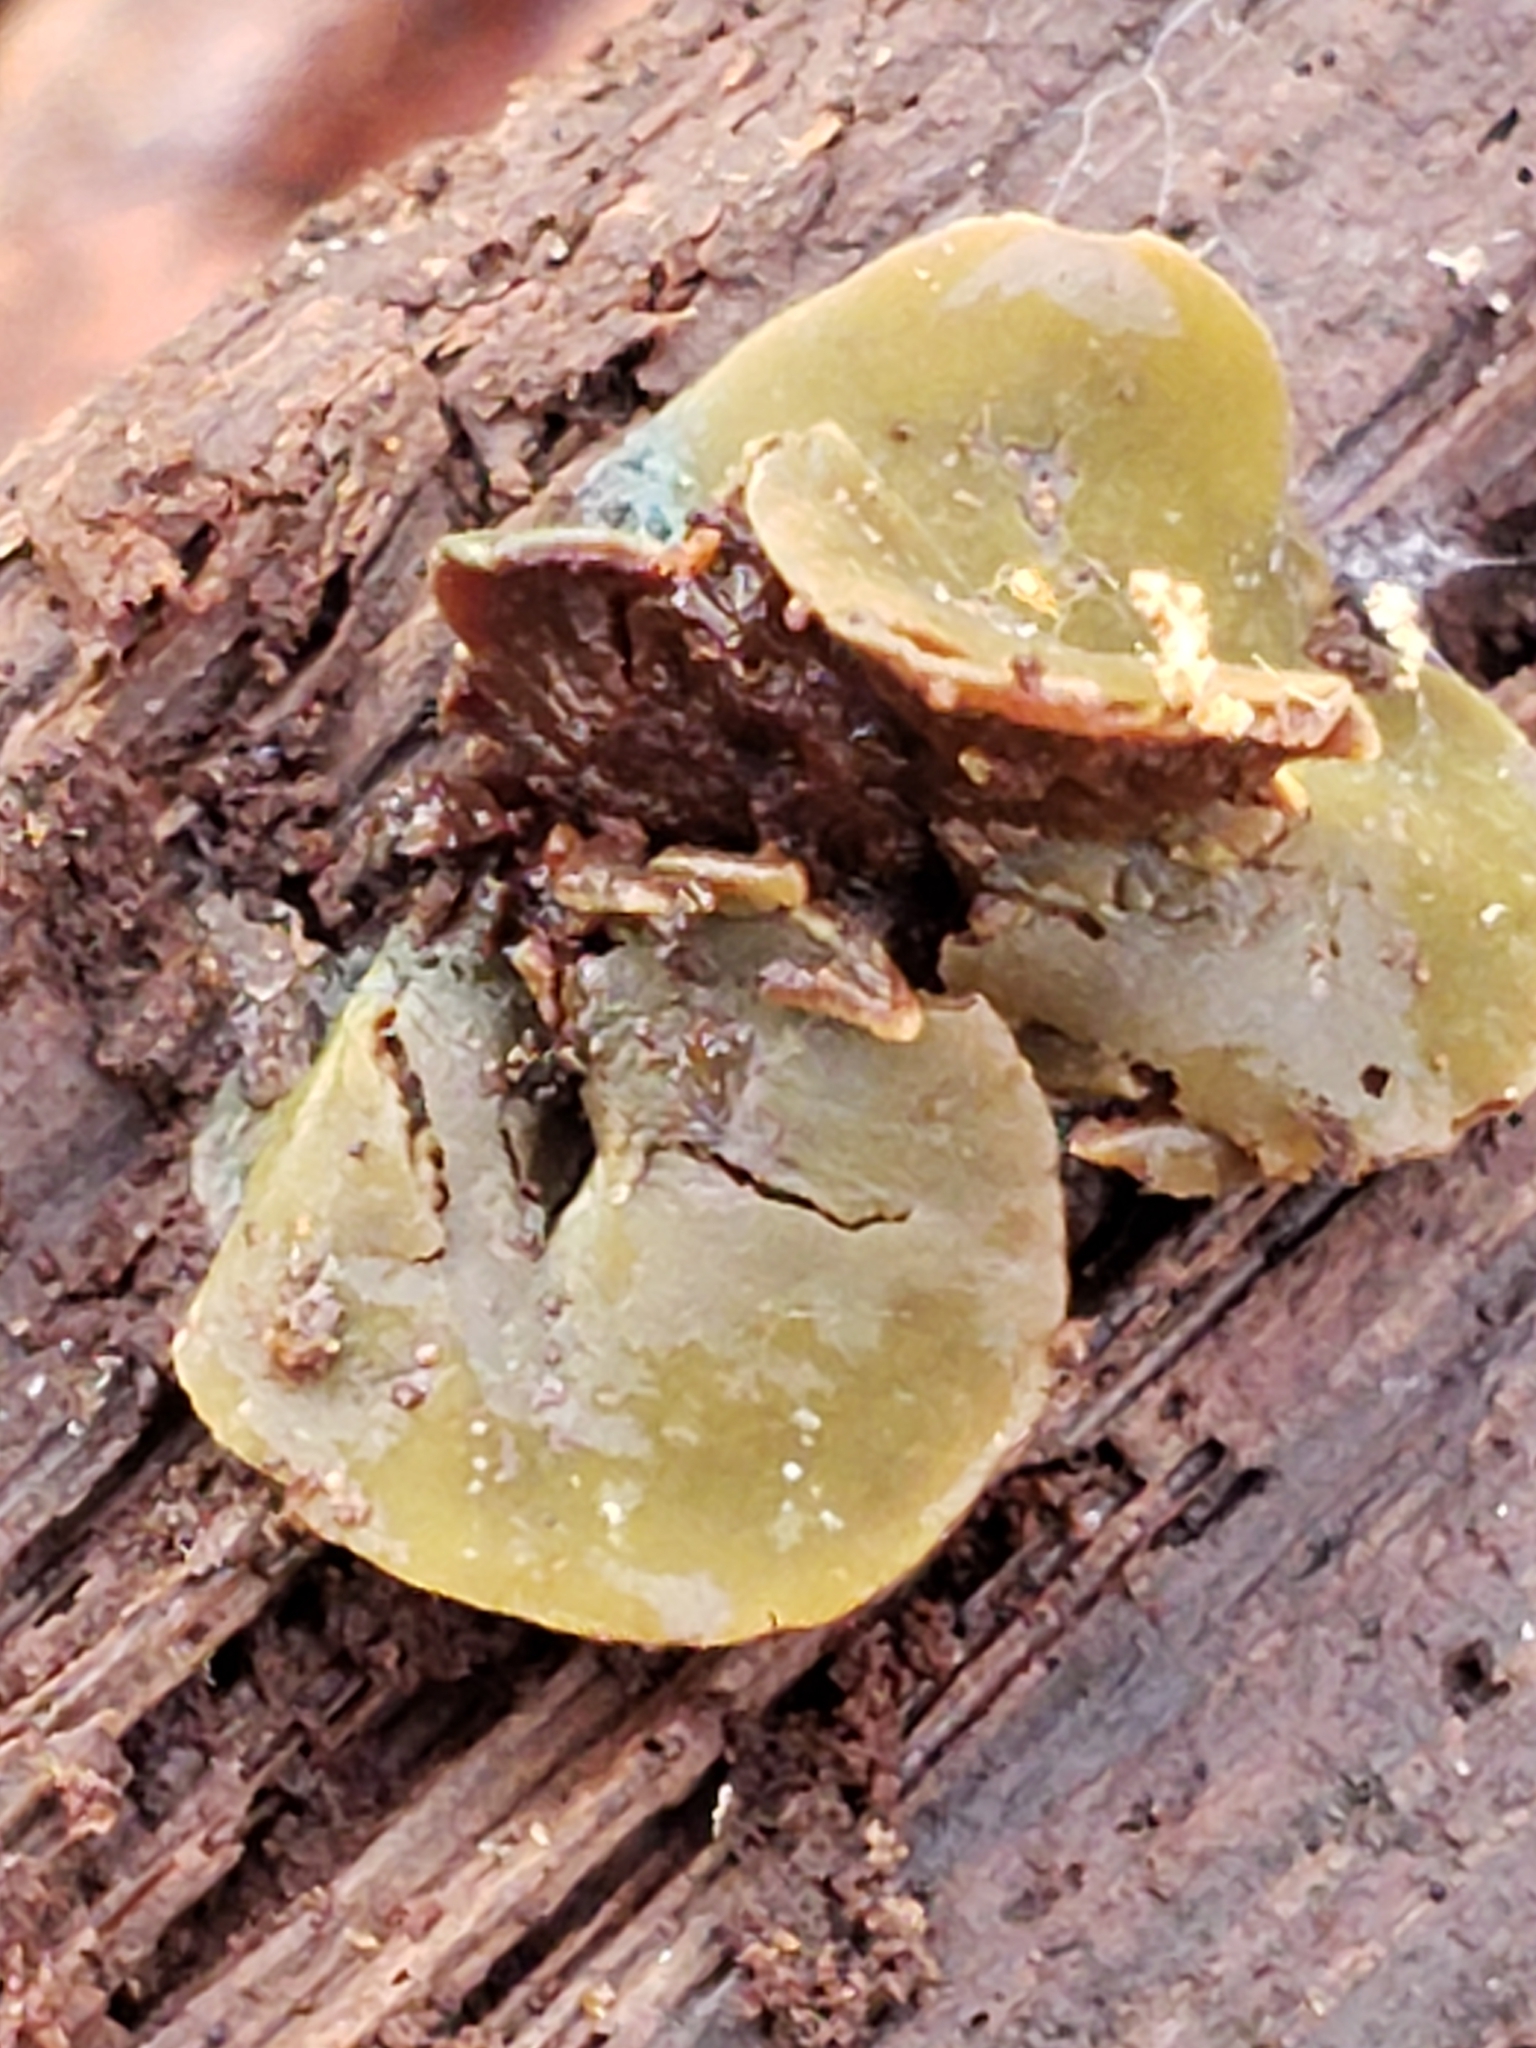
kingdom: Fungi
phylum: Ascomycota
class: Leotiomycetes
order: Helotiales
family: Cenangiaceae
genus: Chlorencoelia
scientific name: Chlorencoelia
